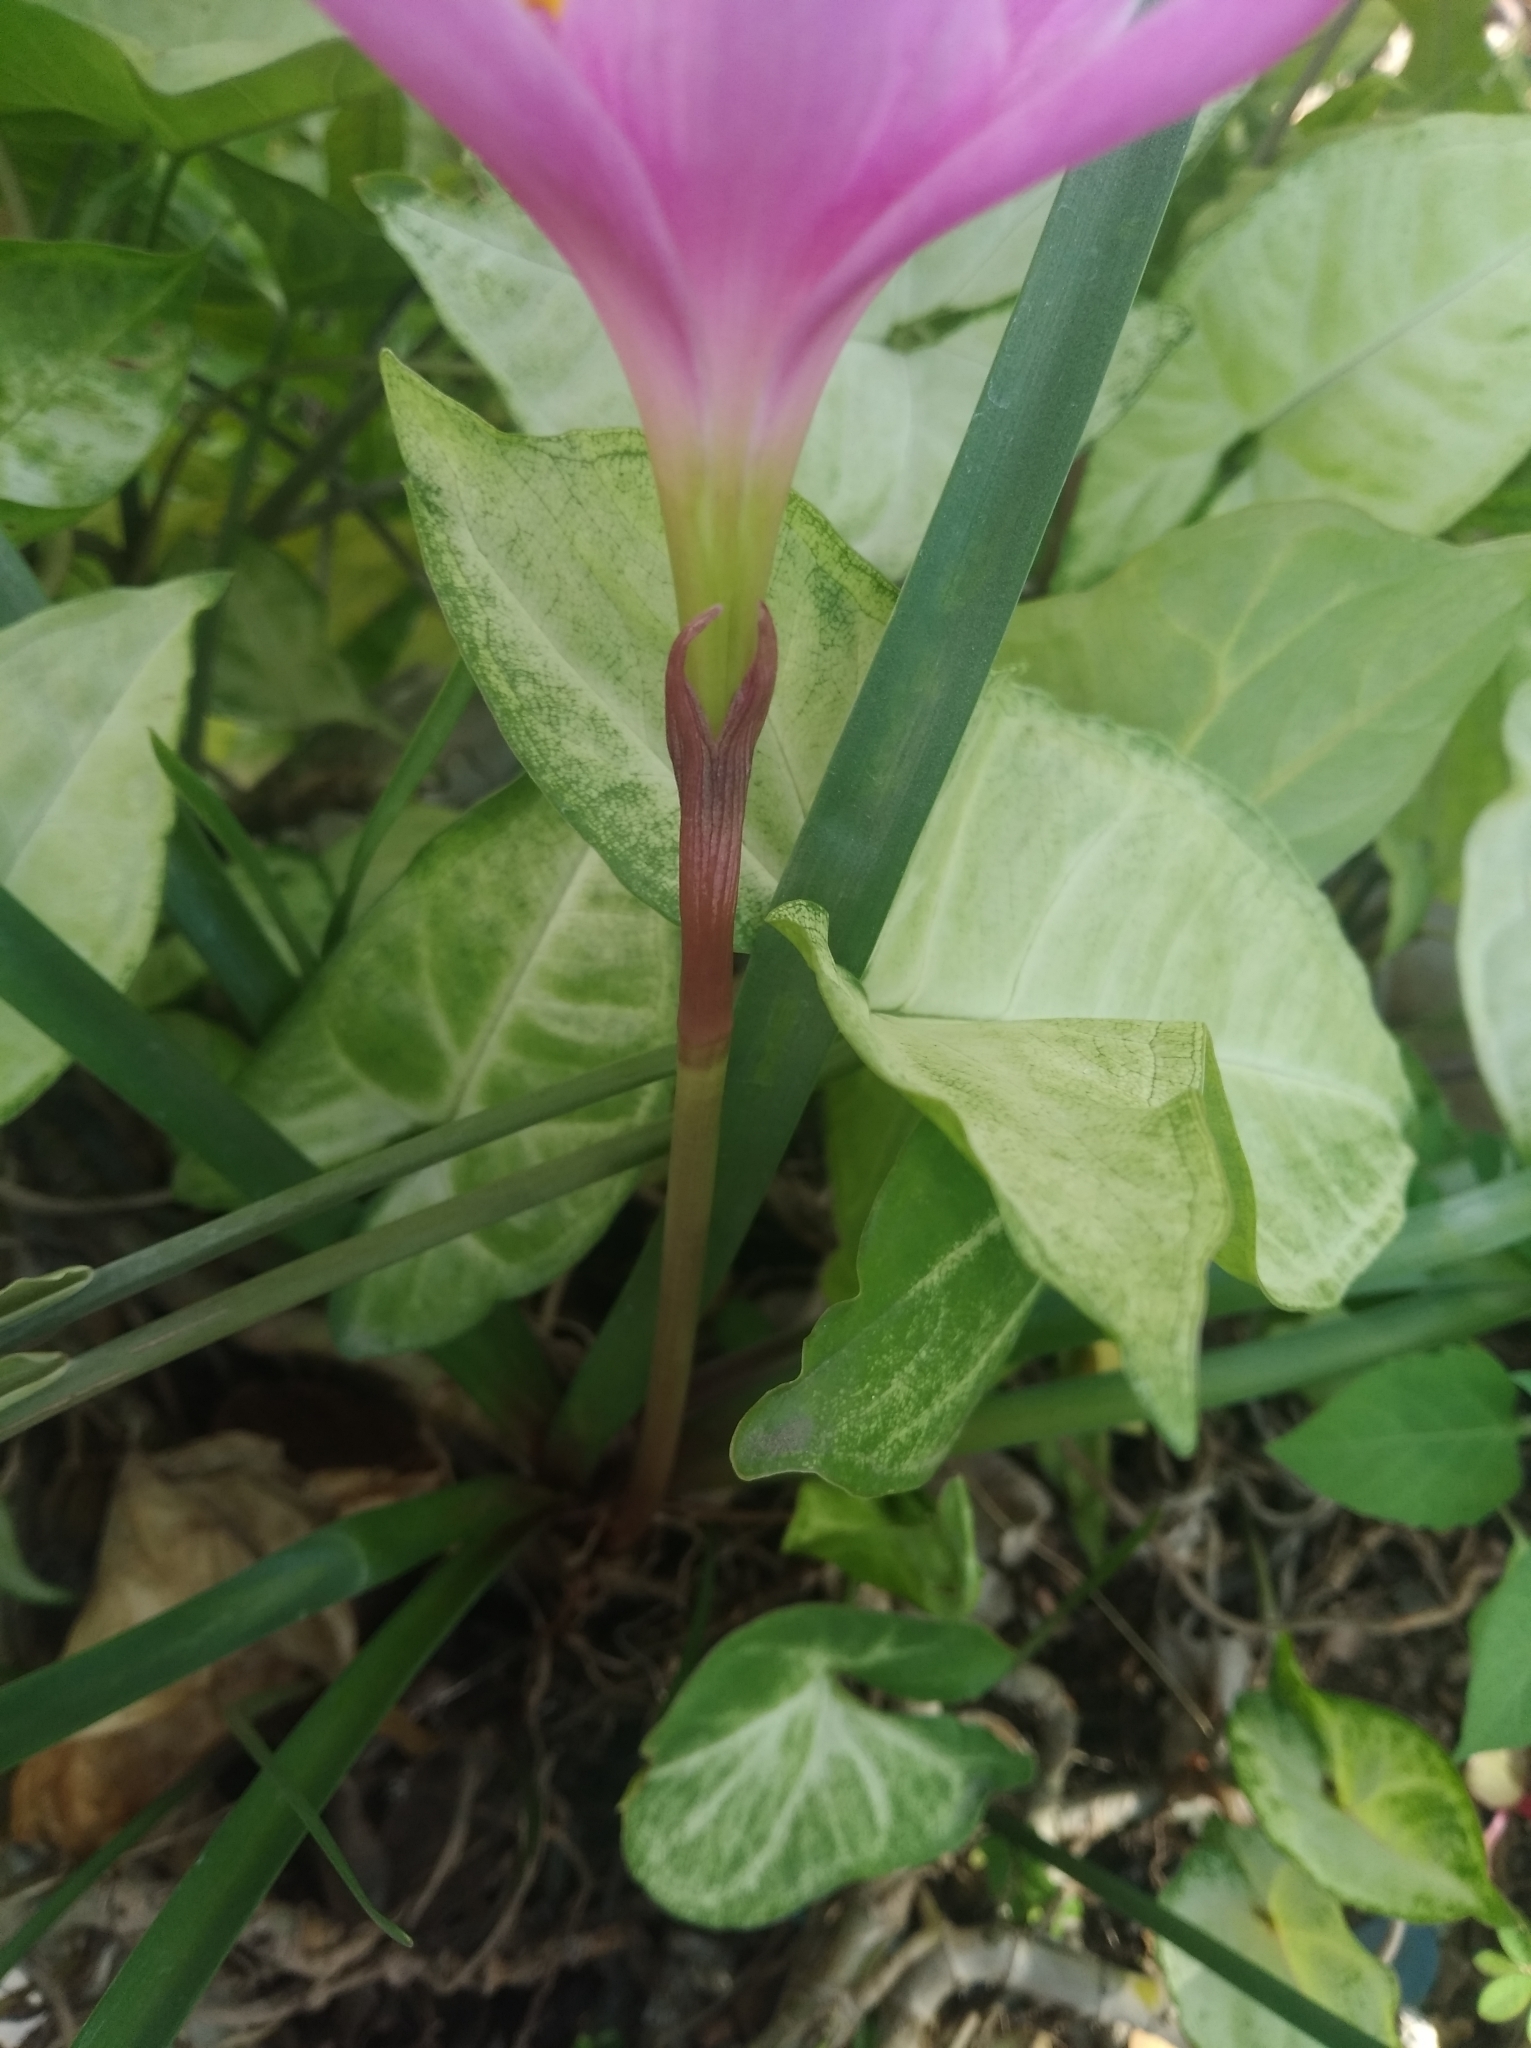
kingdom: Plantae
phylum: Tracheophyta
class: Liliopsida
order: Asparagales
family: Amaryllidaceae
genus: Zephyranthes
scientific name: Zephyranthes carinata
